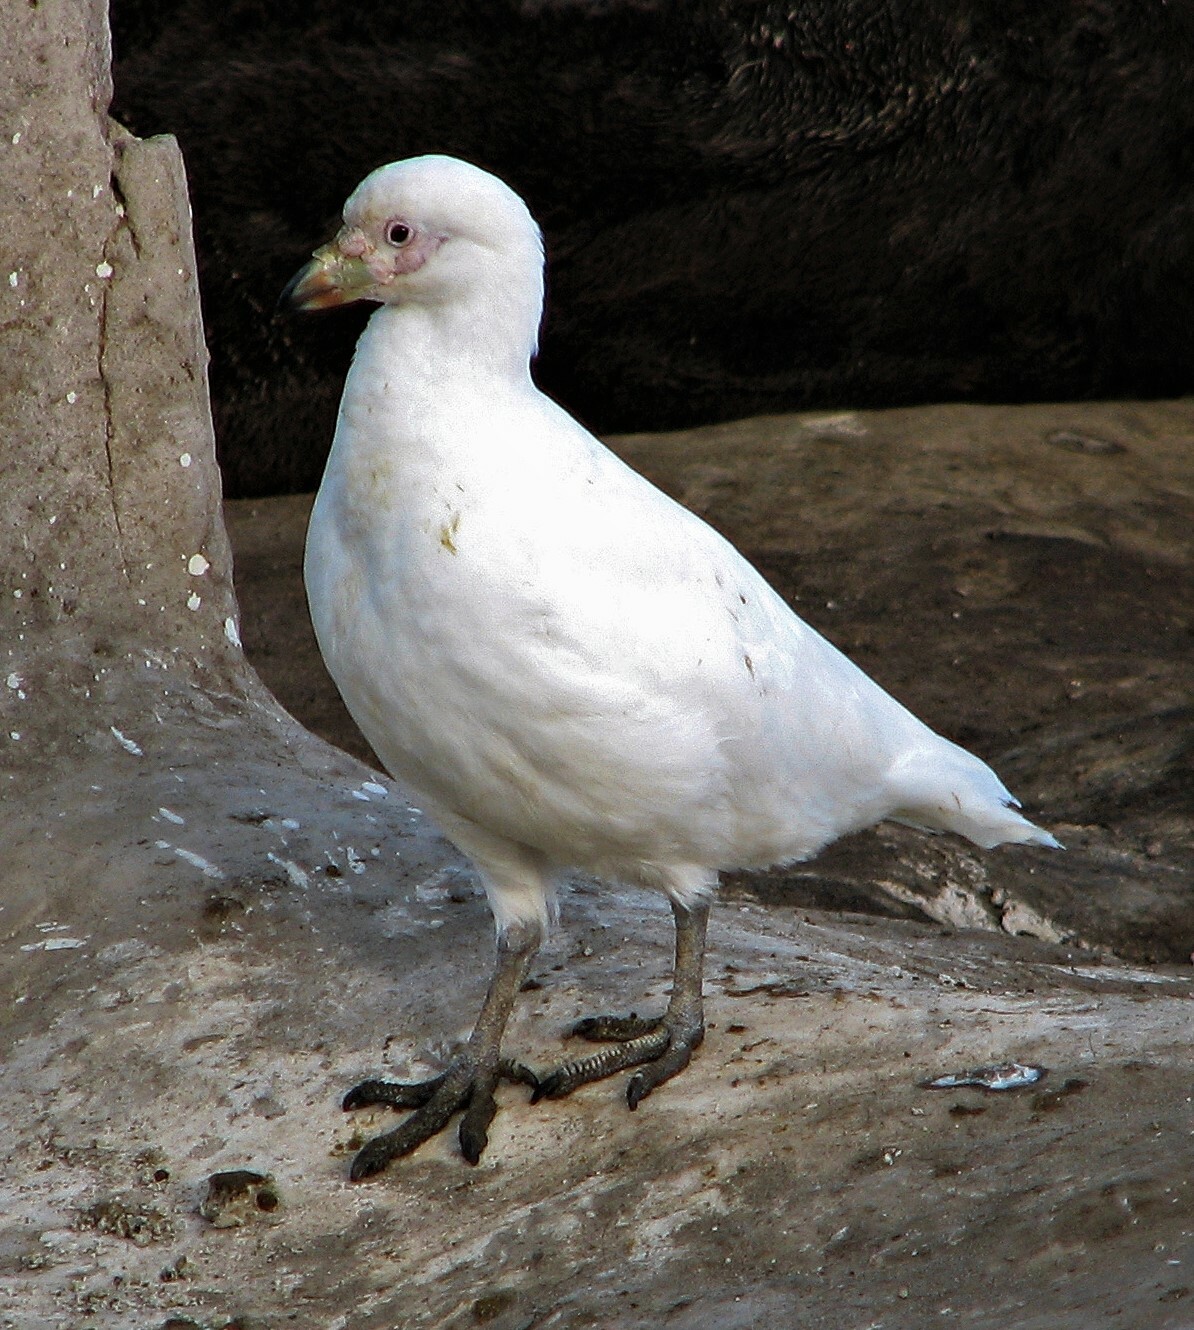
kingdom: Animalia
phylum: Chordata
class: Aves
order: Charadriiformes
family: Chionidae
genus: Chionis
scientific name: Chionis albus
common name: Snowy sheathbill
